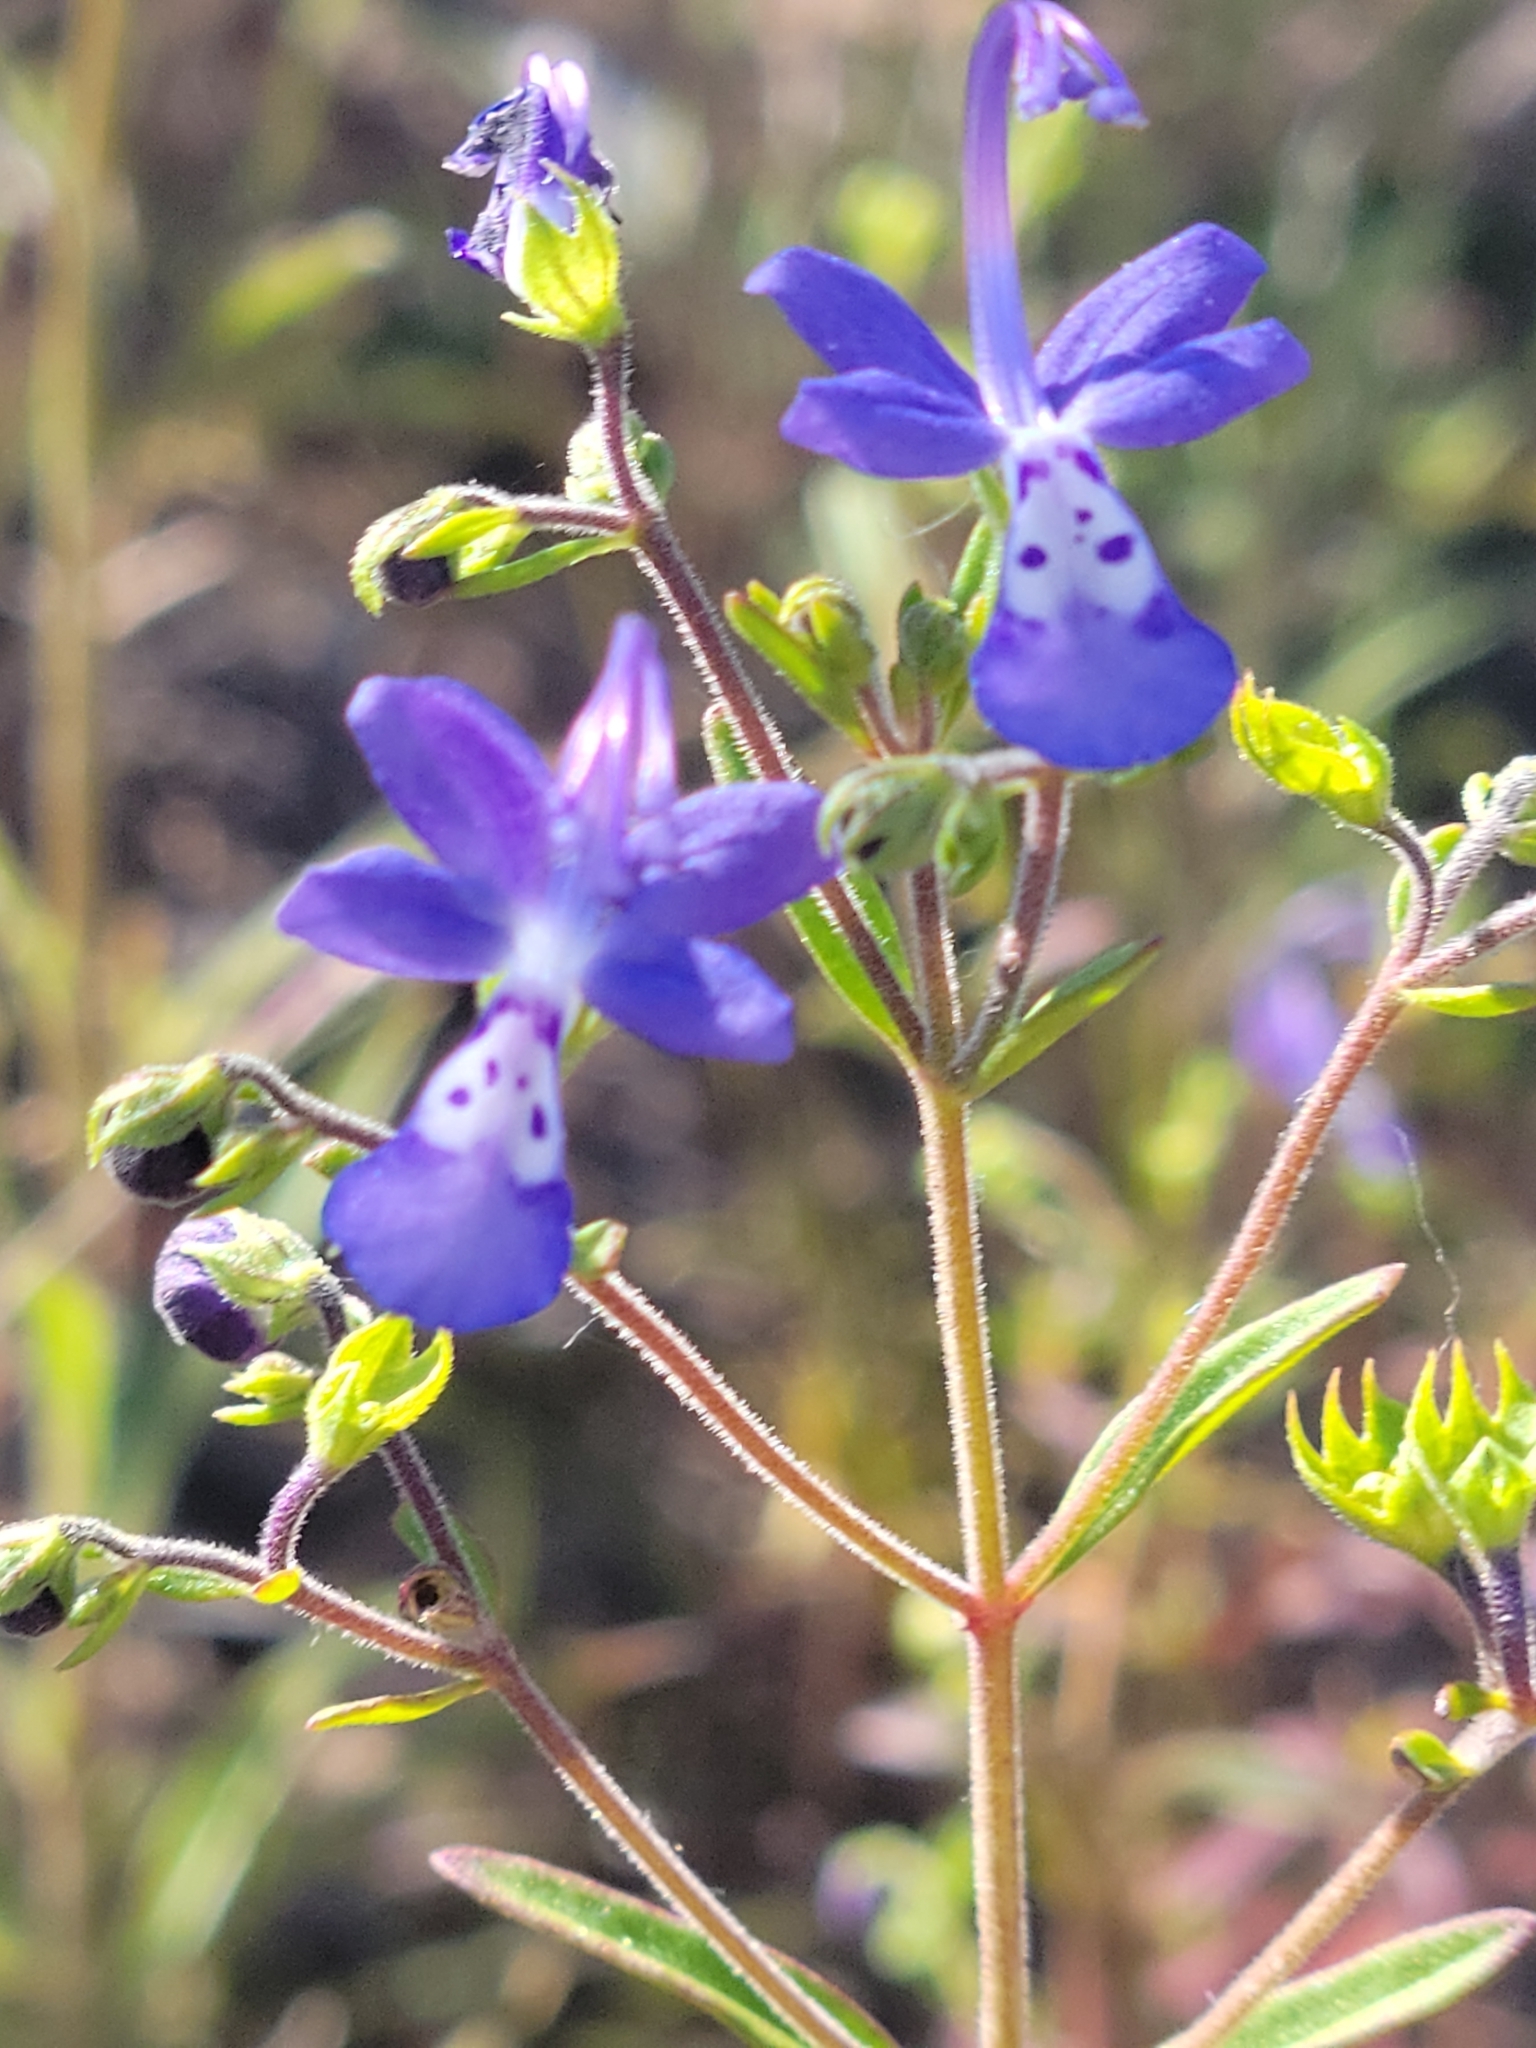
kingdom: Plantae
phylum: Tracheophyta
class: Magnoliopsida
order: Lamiales
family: Lamiaceae
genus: Trichostema
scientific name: Trichostema setaceum
